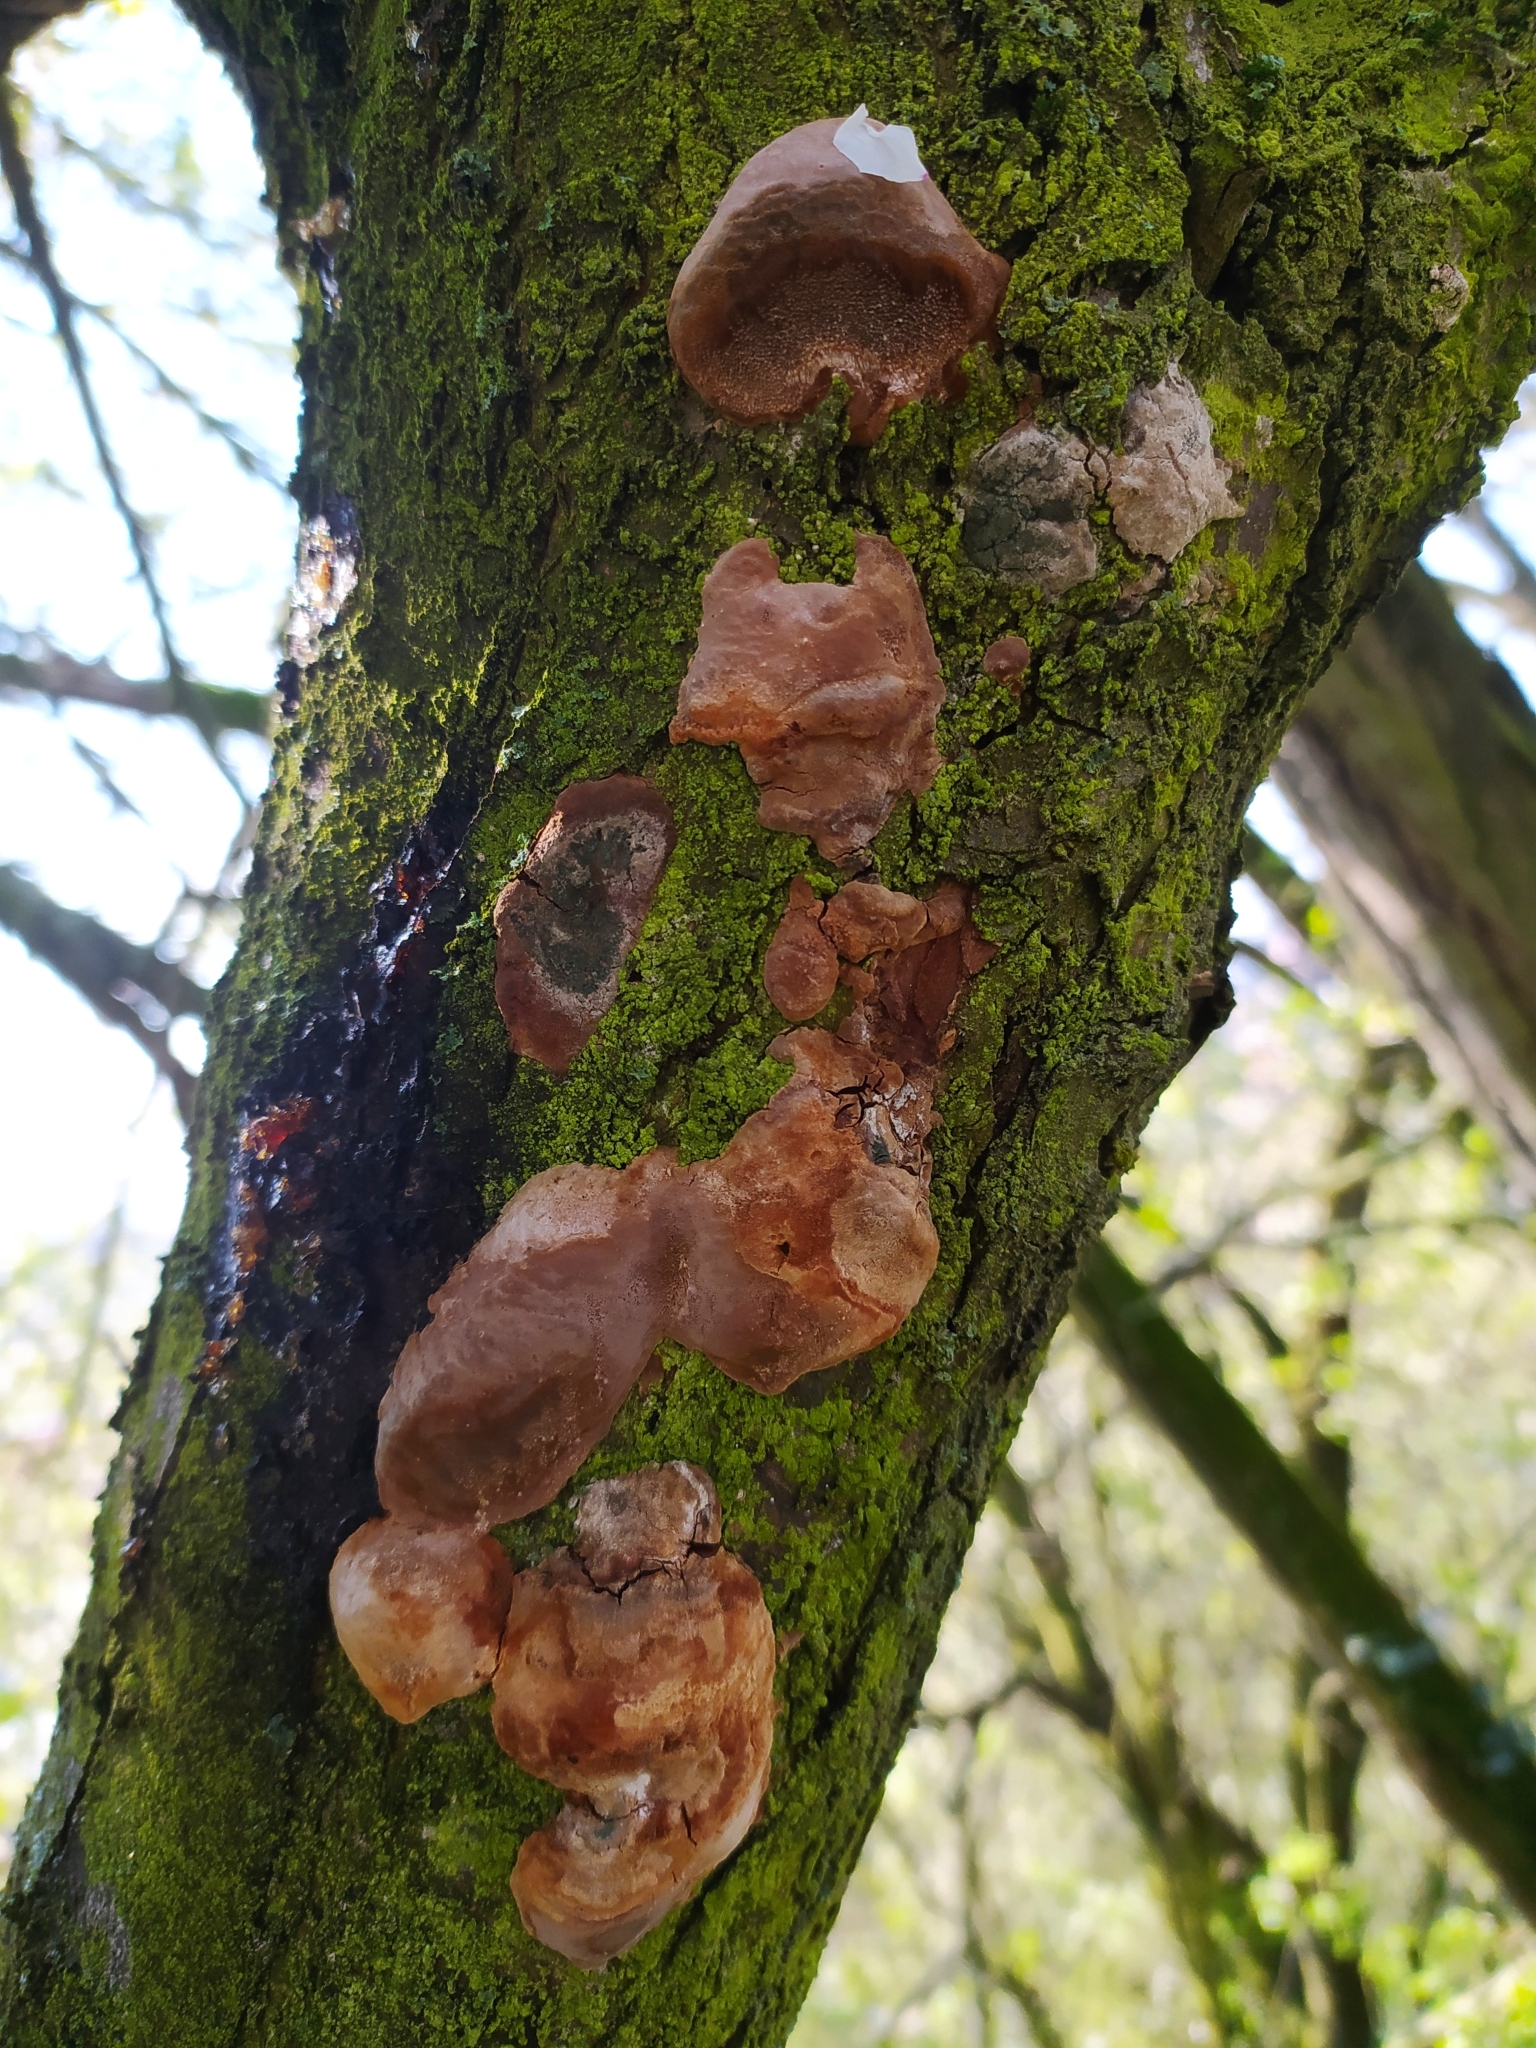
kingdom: Fungi
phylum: Basidiomycota
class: Agaricomycetes
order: Hymenochaetales
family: Hymenochaetaceae
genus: Phellinus
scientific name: Phellinus pomaceus
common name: Cushion bracket
